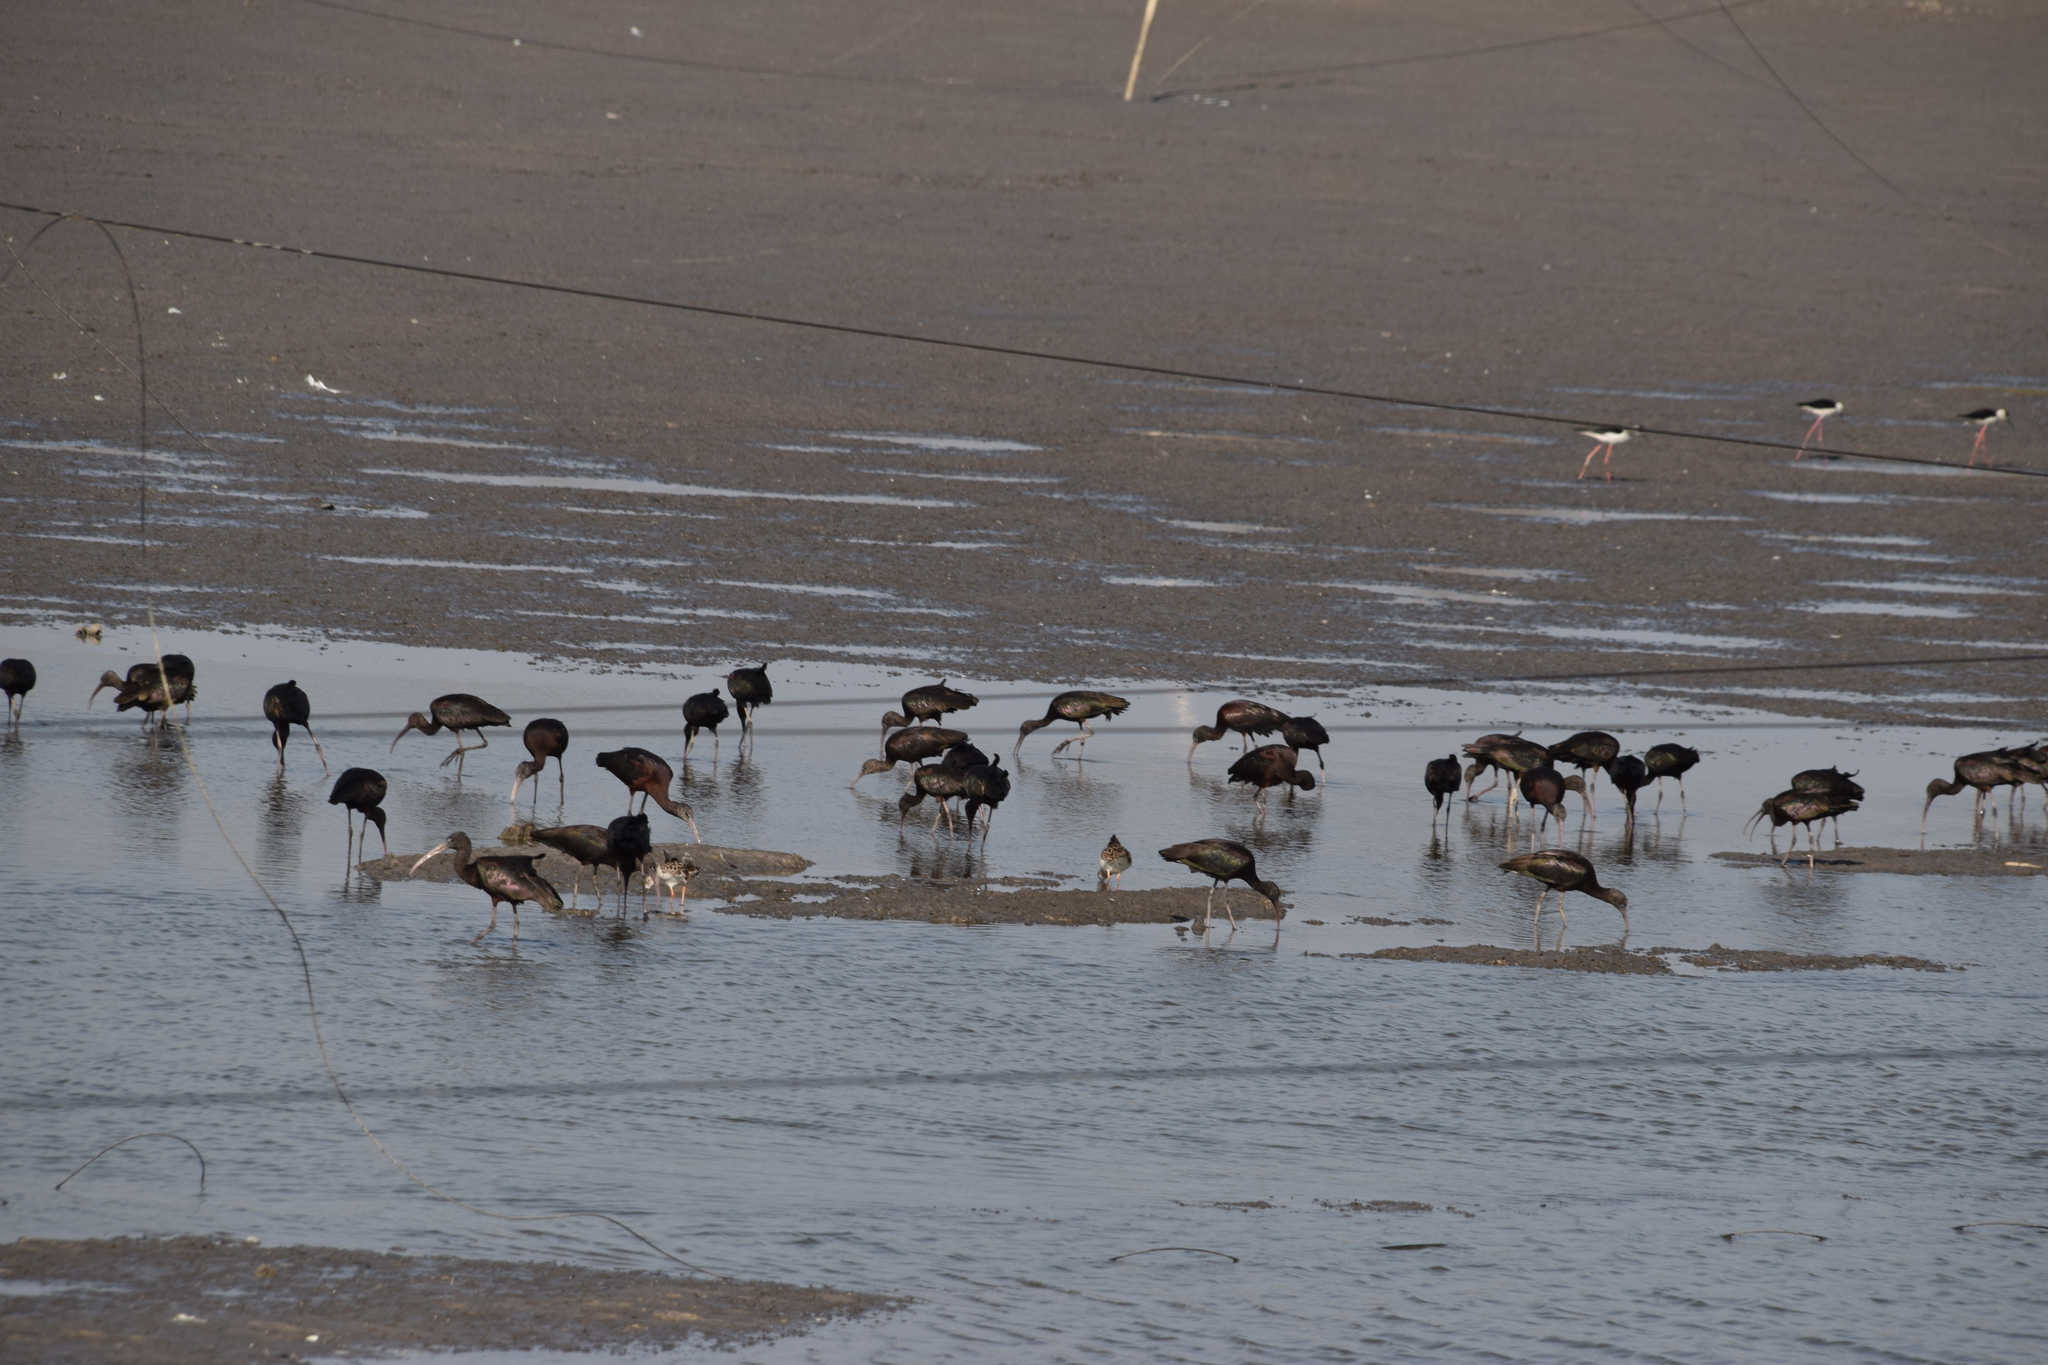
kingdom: Animalia
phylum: Chordata
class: Aves
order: Pelecaniformes
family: Threskiornithidae
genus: Plegadis
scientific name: Plegadis falcinellus
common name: Glossy ibis
